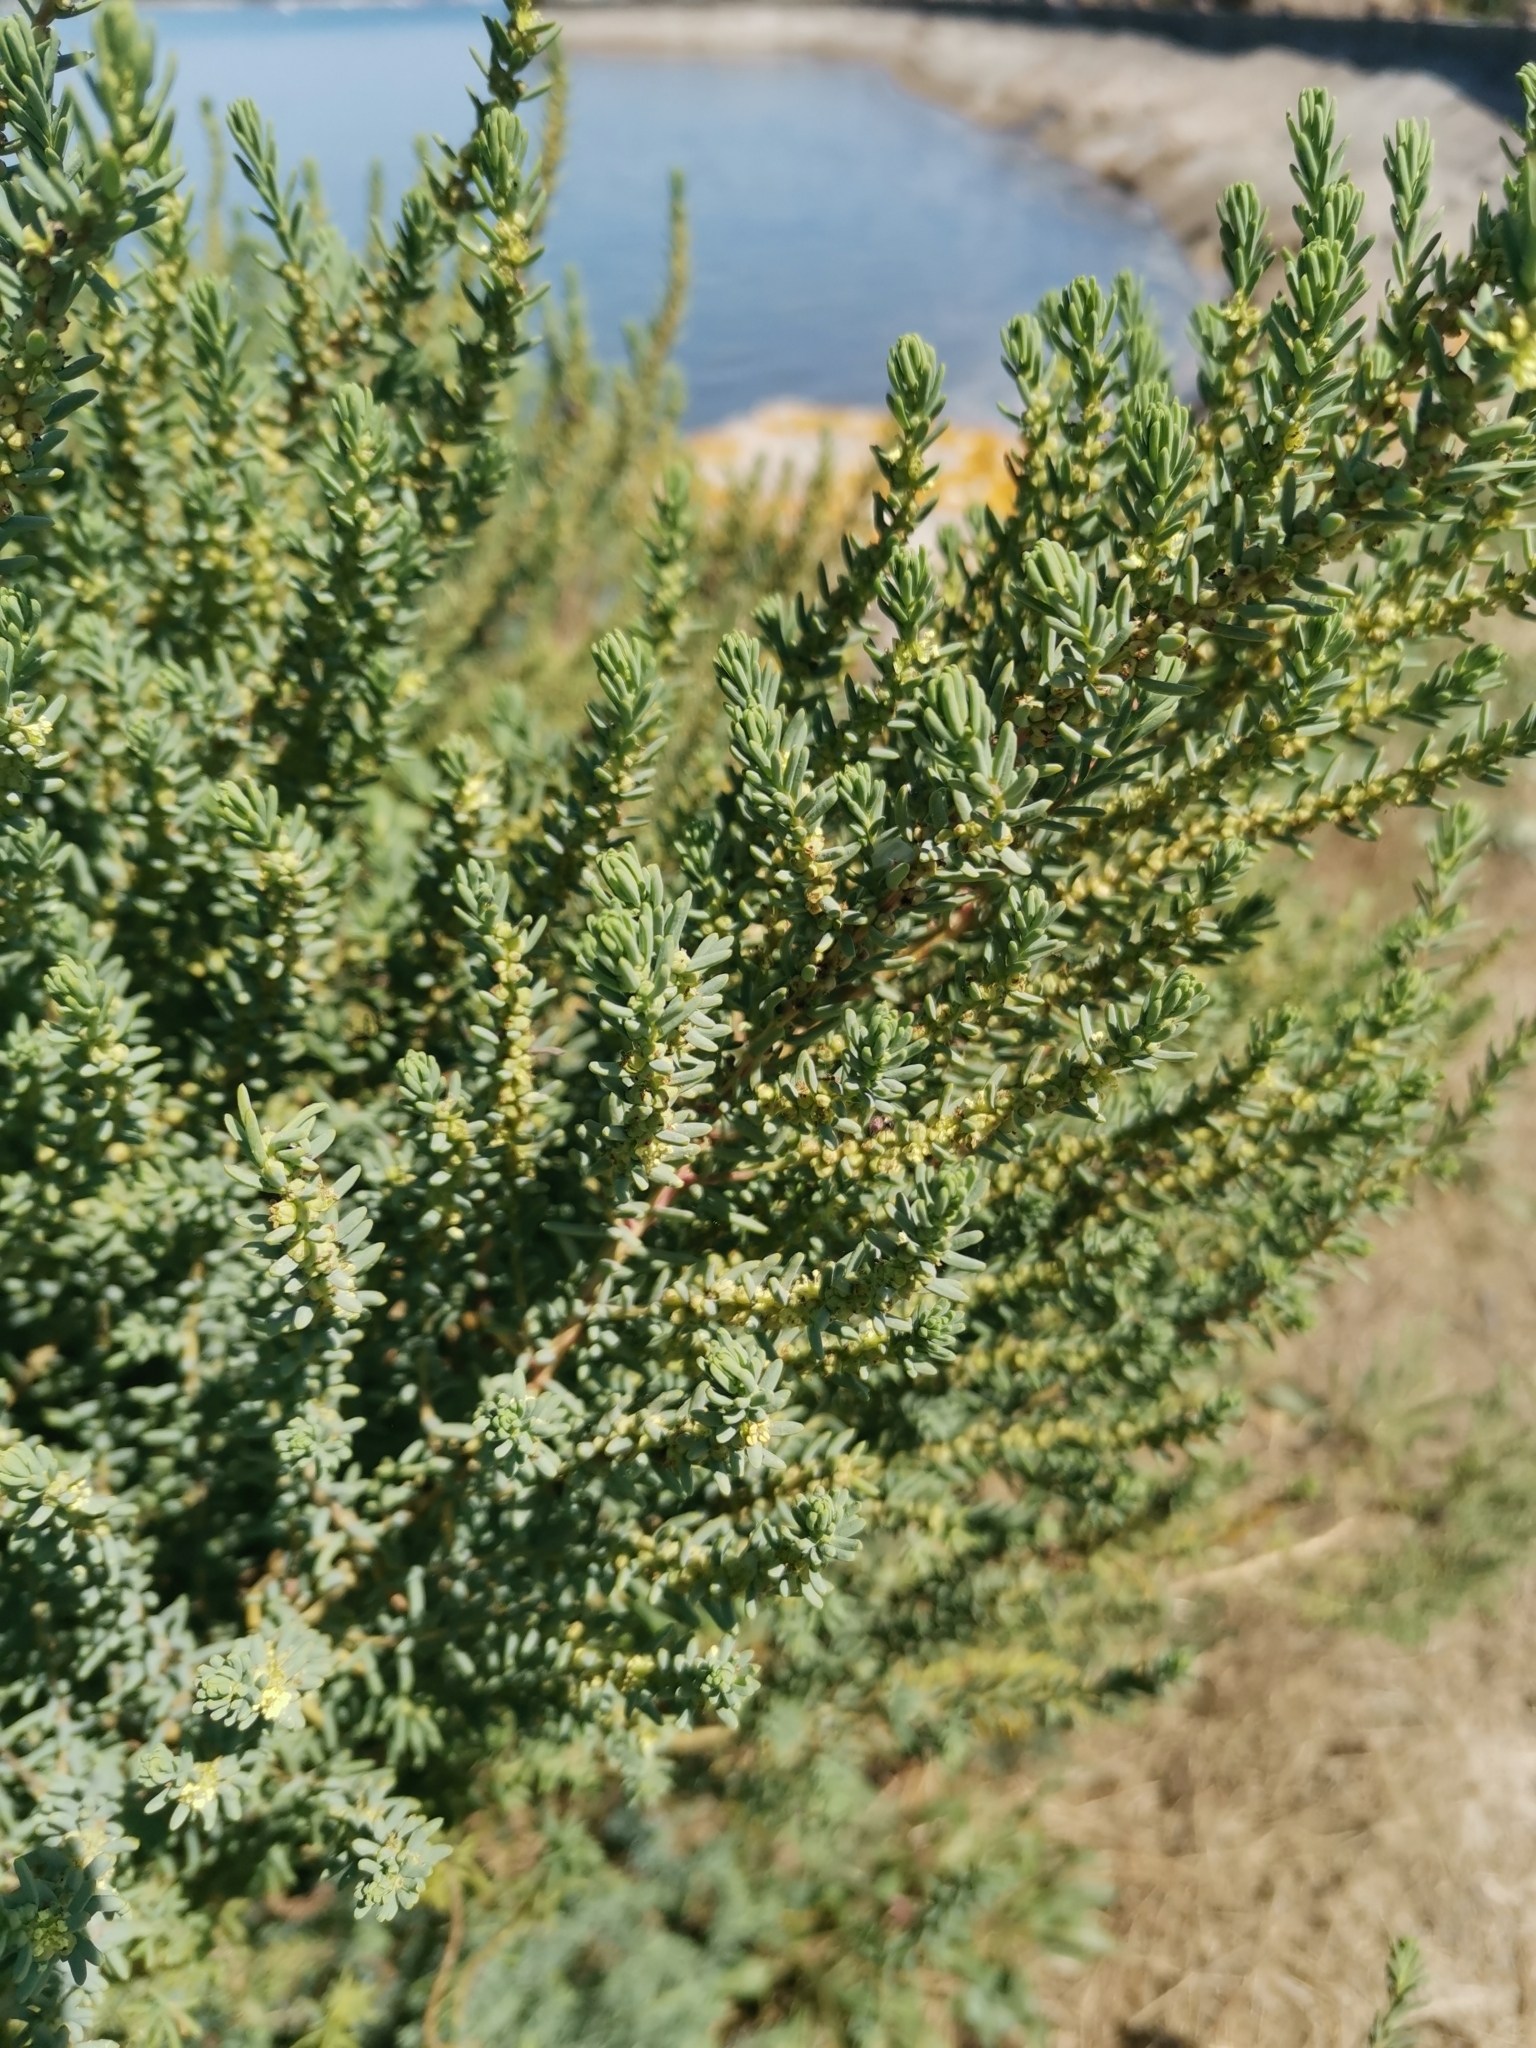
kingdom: Plantae
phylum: Tracheophyta
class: Magnoliopsida
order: Caryophyllales
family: Amaranthaceae
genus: Suaeda
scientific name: Suaeda vera
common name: Shrubby sea-blite
